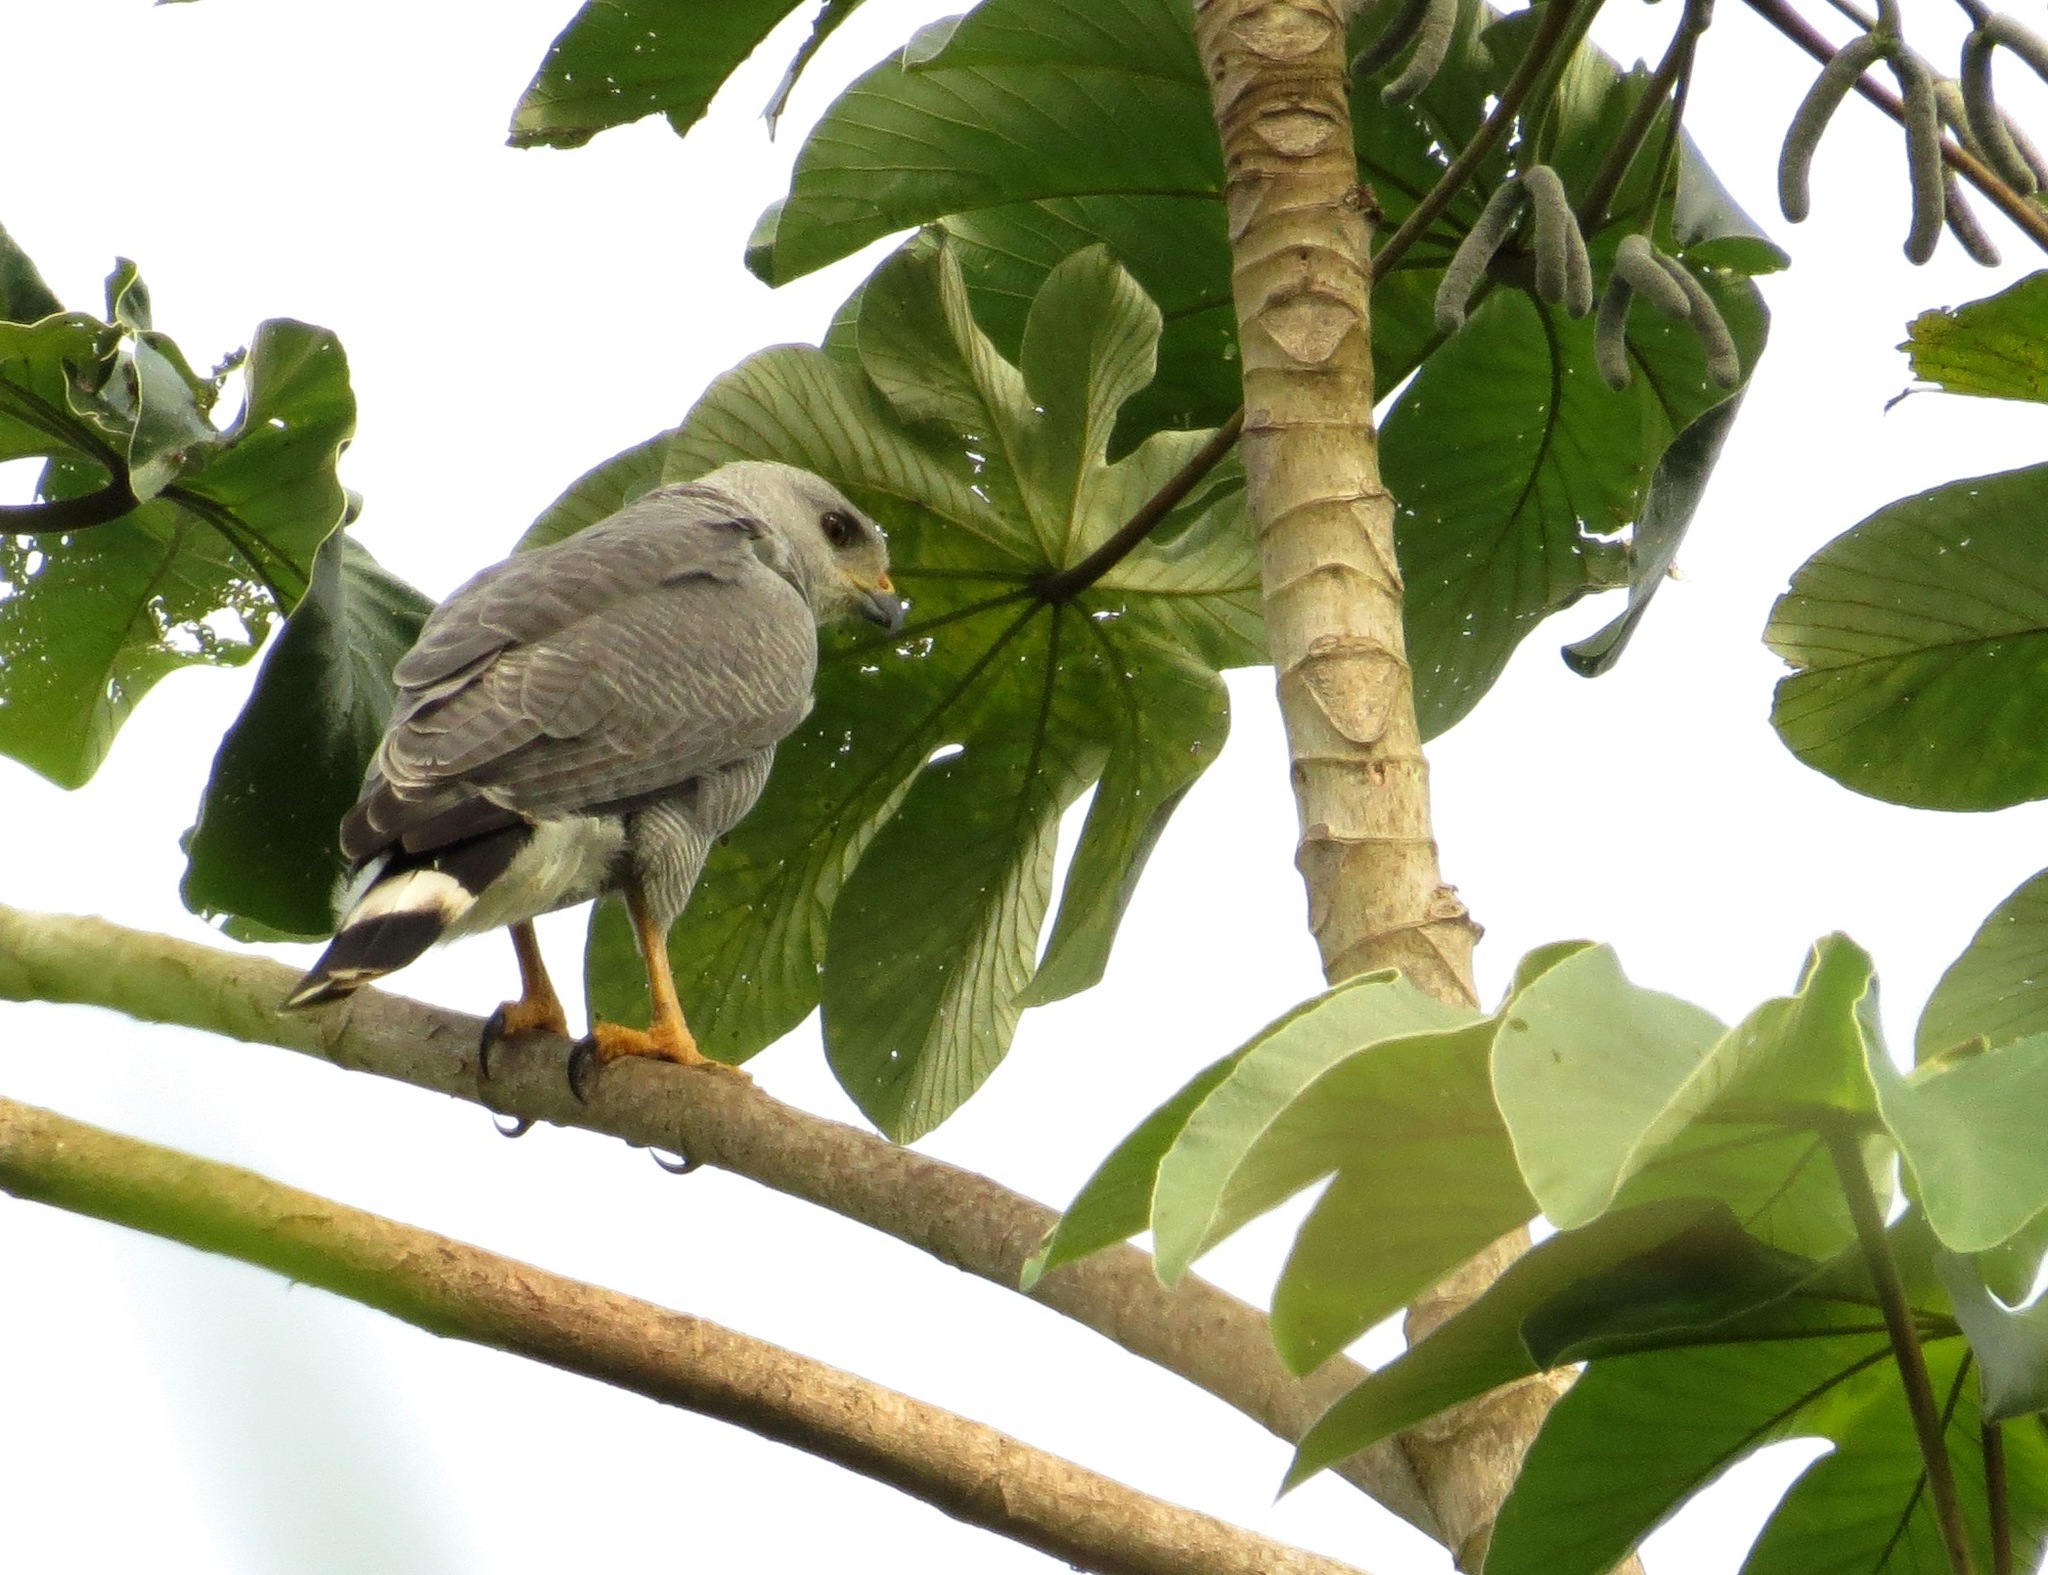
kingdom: Animalia
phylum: Chordata
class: Aves
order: Accipitriformes
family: Accipitridae
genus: Buteo
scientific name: Buteo nitidus
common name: Grey-lined hawk
